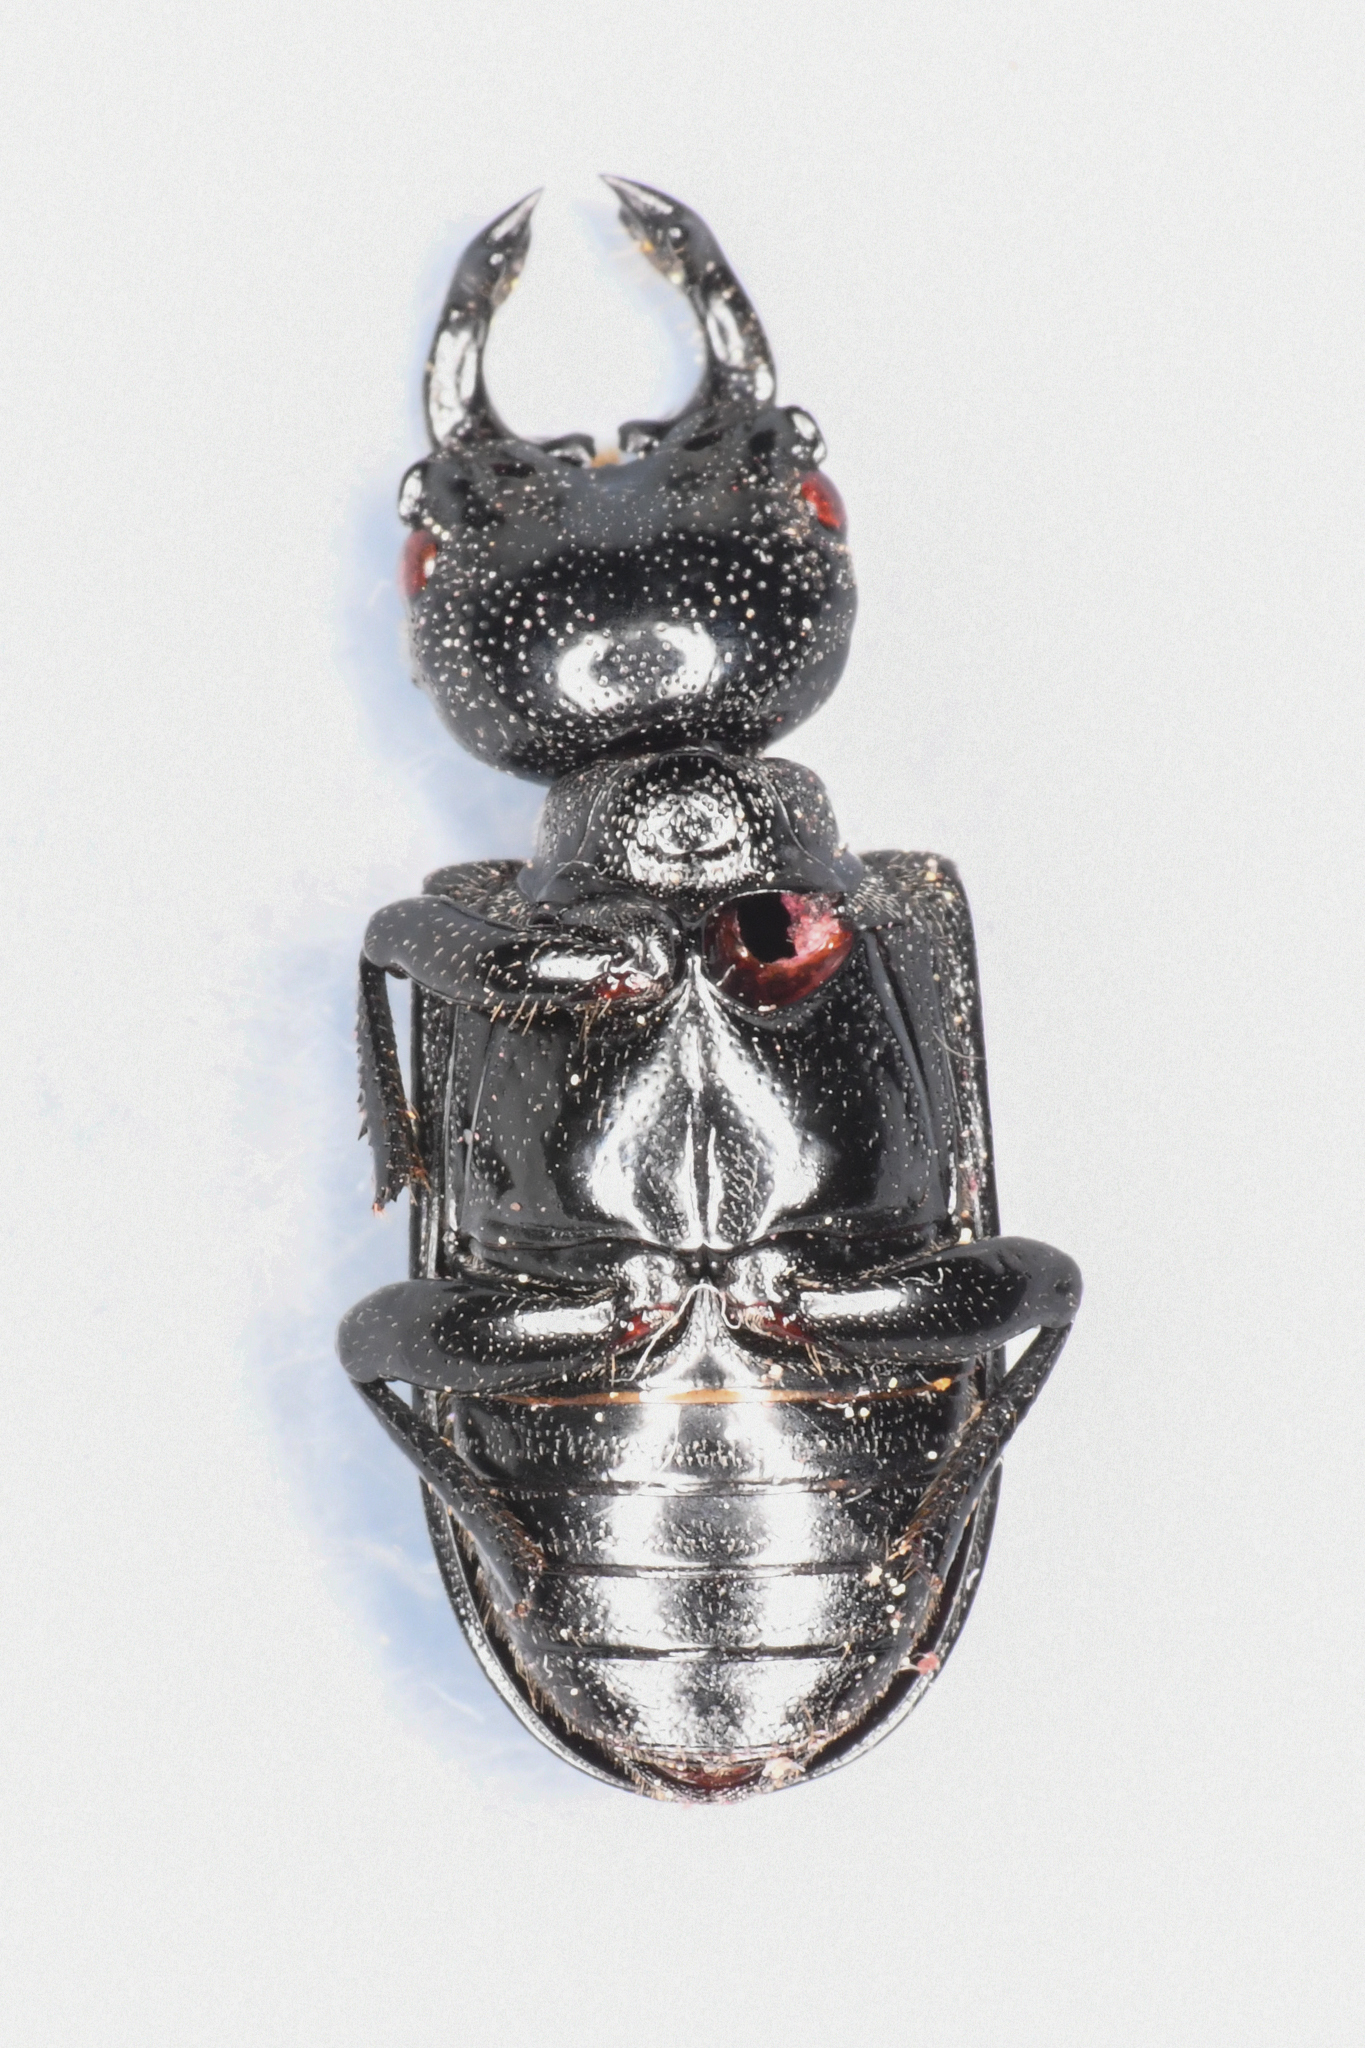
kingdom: Animalia
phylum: Arthropoda
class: Insecta
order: Coleoptera
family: Lucanidae
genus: Platycerus
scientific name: Platycerus oregonensis
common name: Oregon stag beetle
